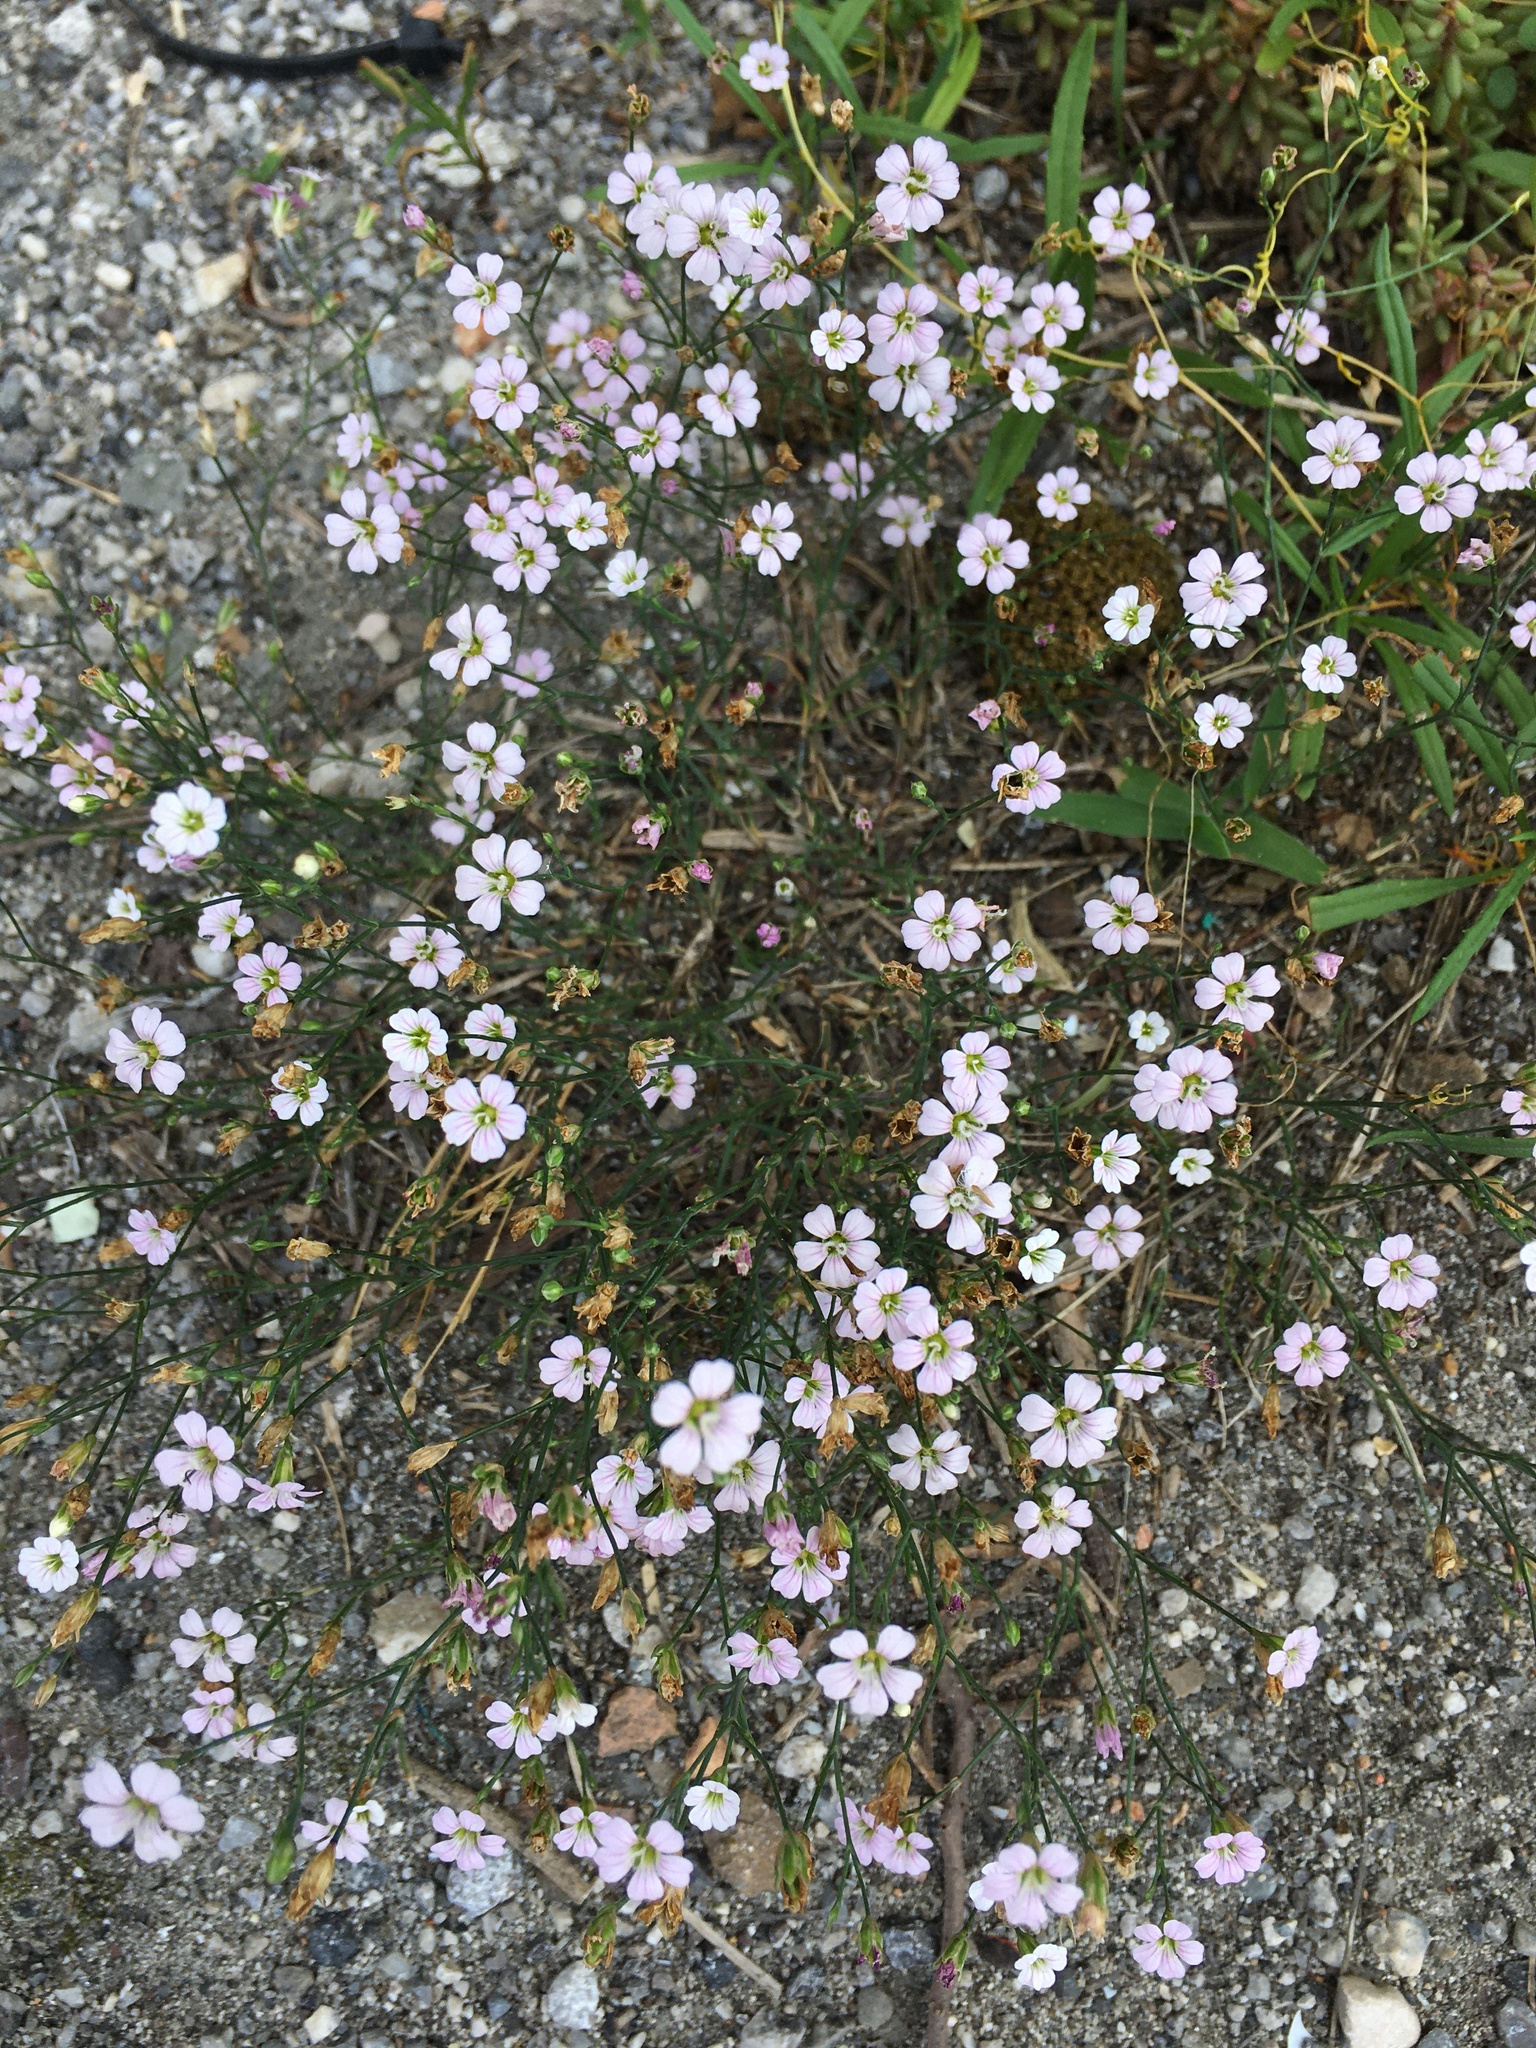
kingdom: Plantae
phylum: Tracheophyta
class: Magnoliopsida
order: Caryophyllales
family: Caryophyllaceae
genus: Petrorhagia
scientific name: Petrorhagia saxifraga
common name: Tunicflower
